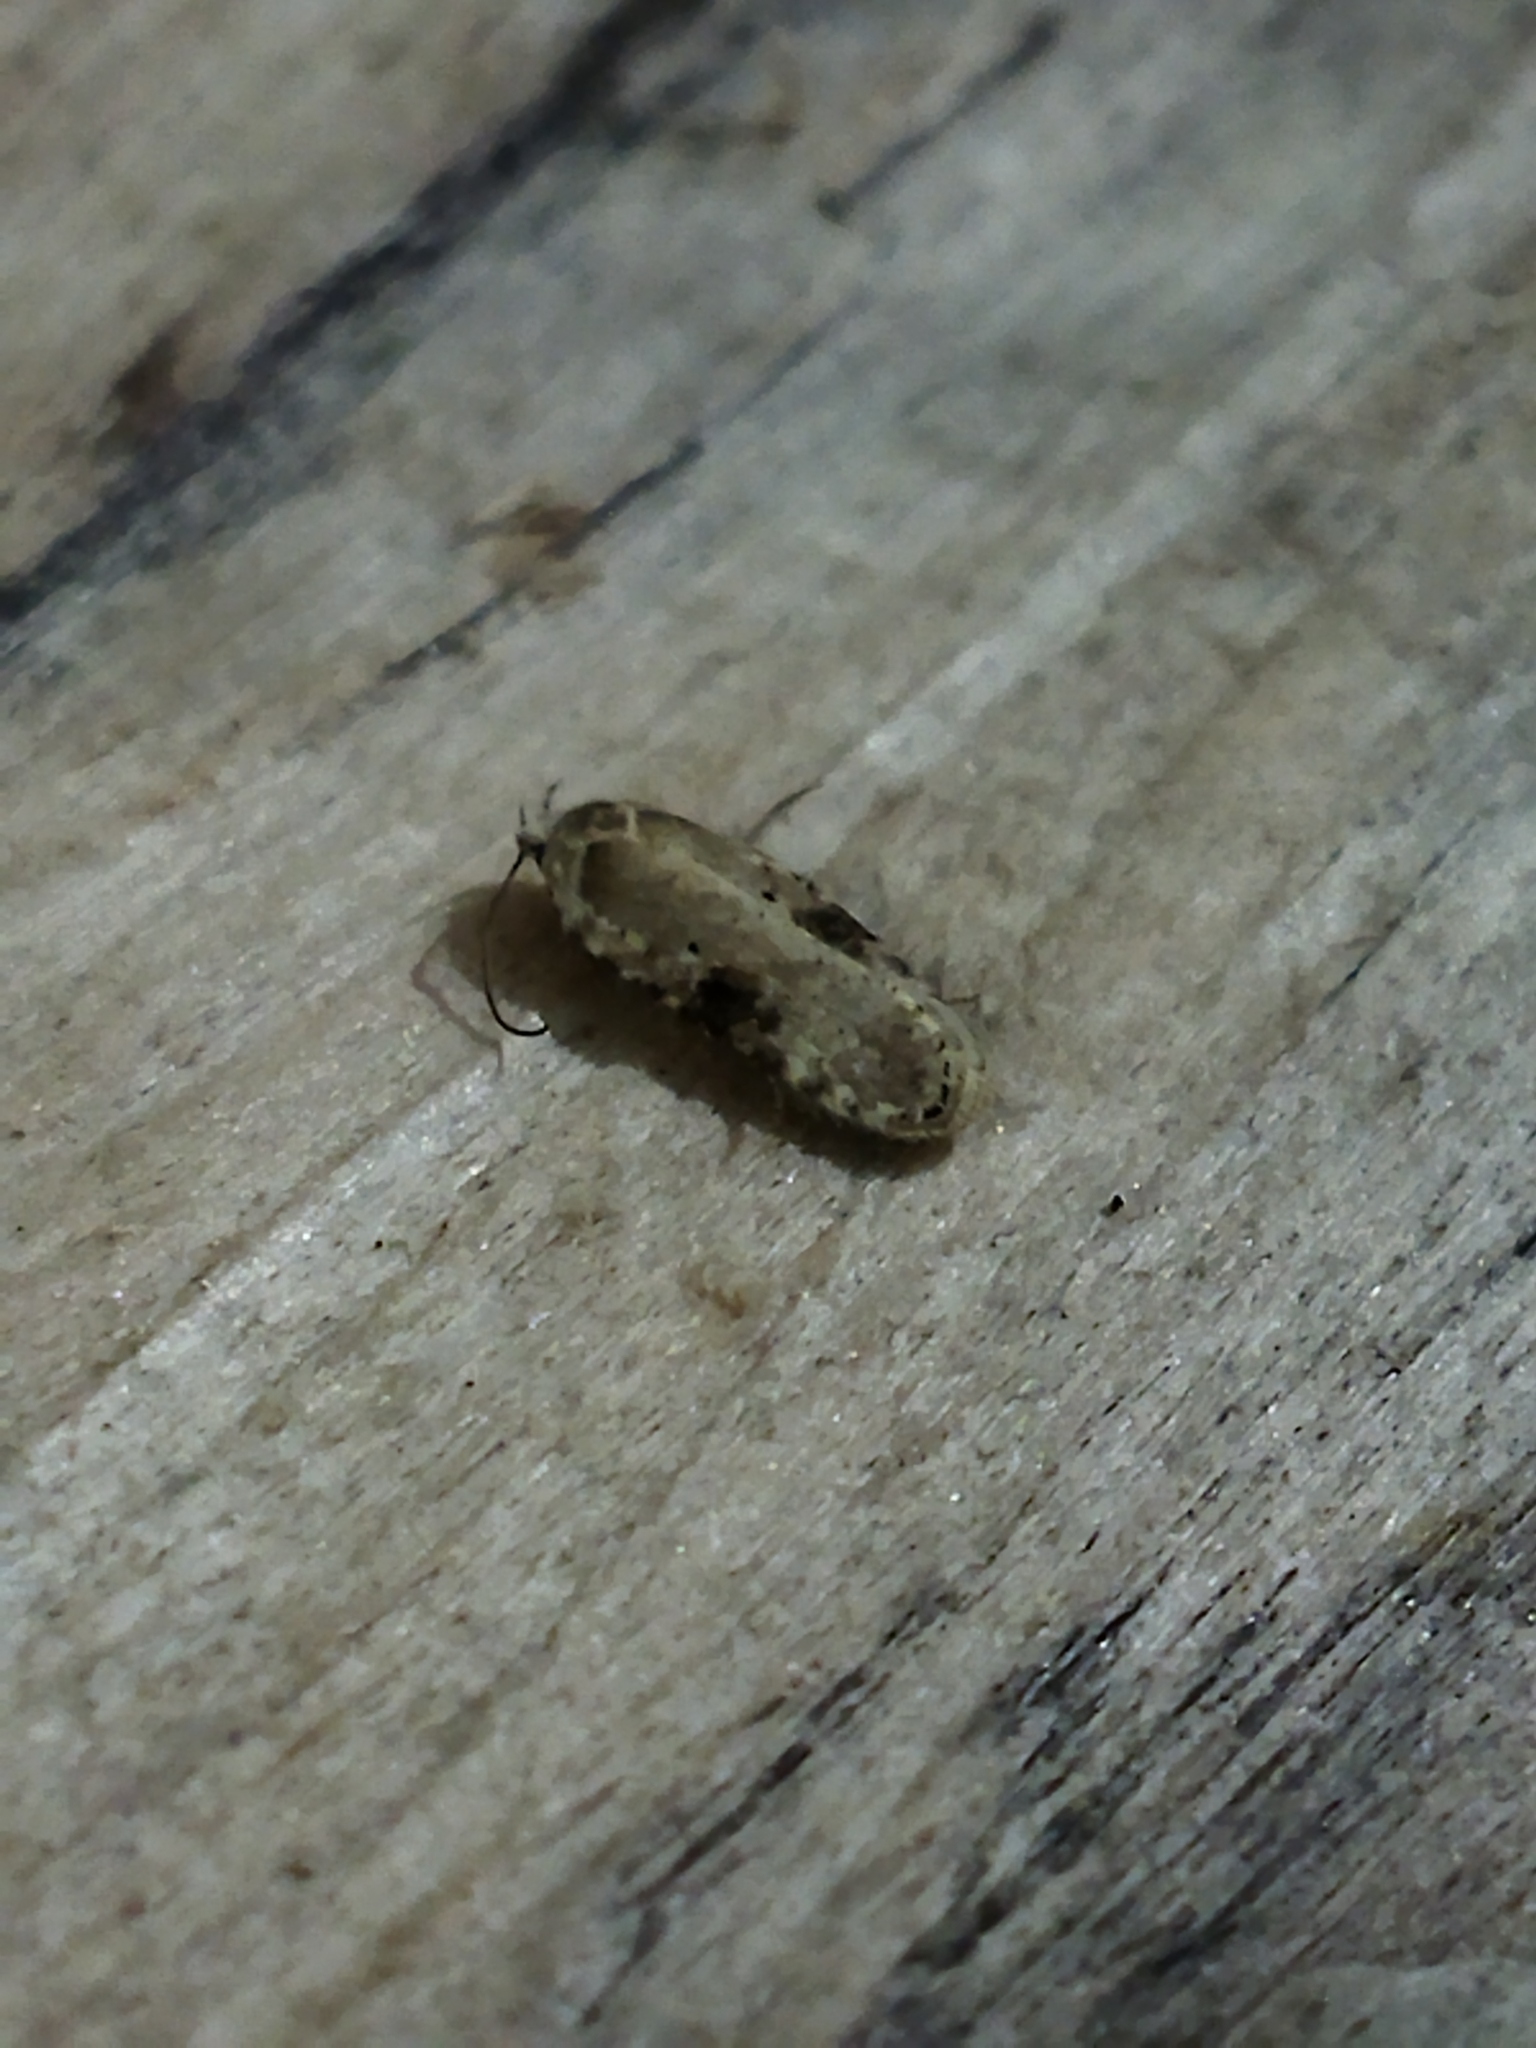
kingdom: Animalia
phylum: Arthropoda
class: Insecta
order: Lepidoptera
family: Depressariidae
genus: Agonopterix
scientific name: Agonopterix alstroemeriana
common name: Moth
